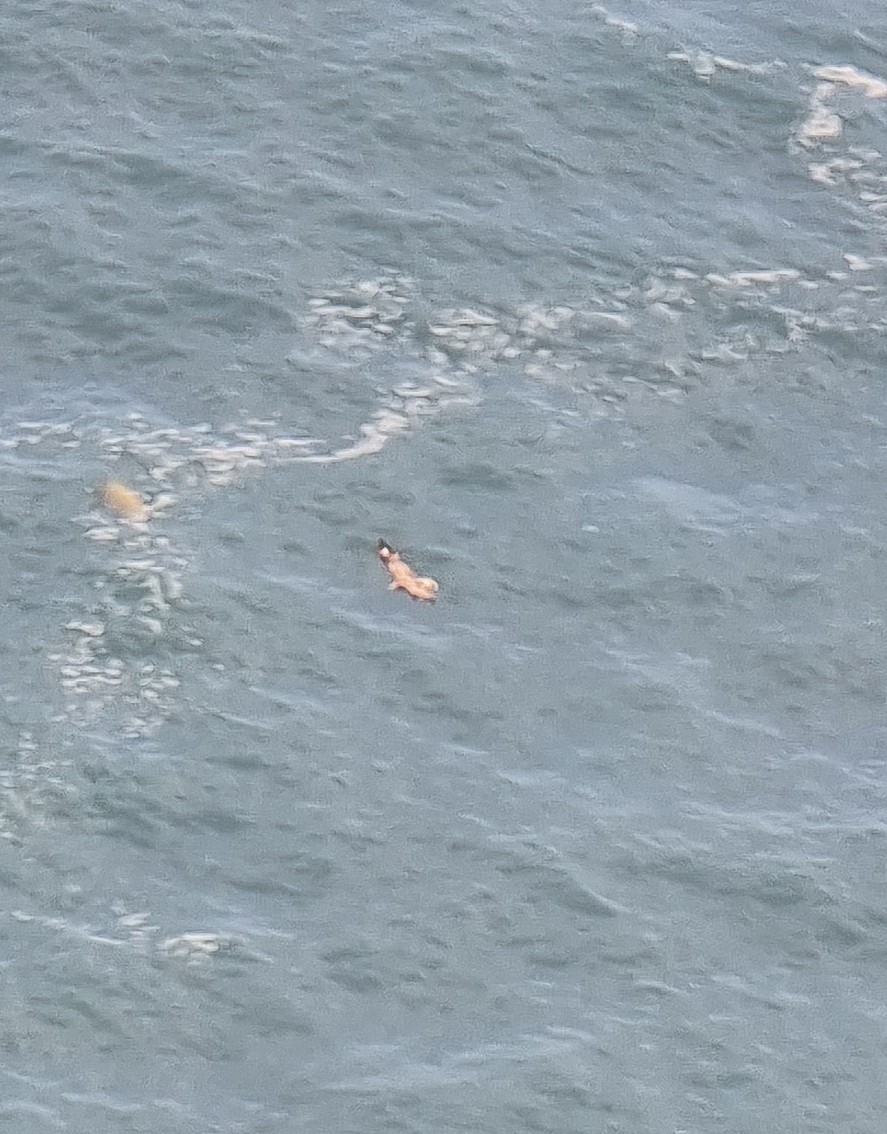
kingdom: Animalia
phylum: Chordata
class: Aves
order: Accipitriformes
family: Accipitridae
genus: Buteo
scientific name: Buteo buteo
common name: Common buzzard
